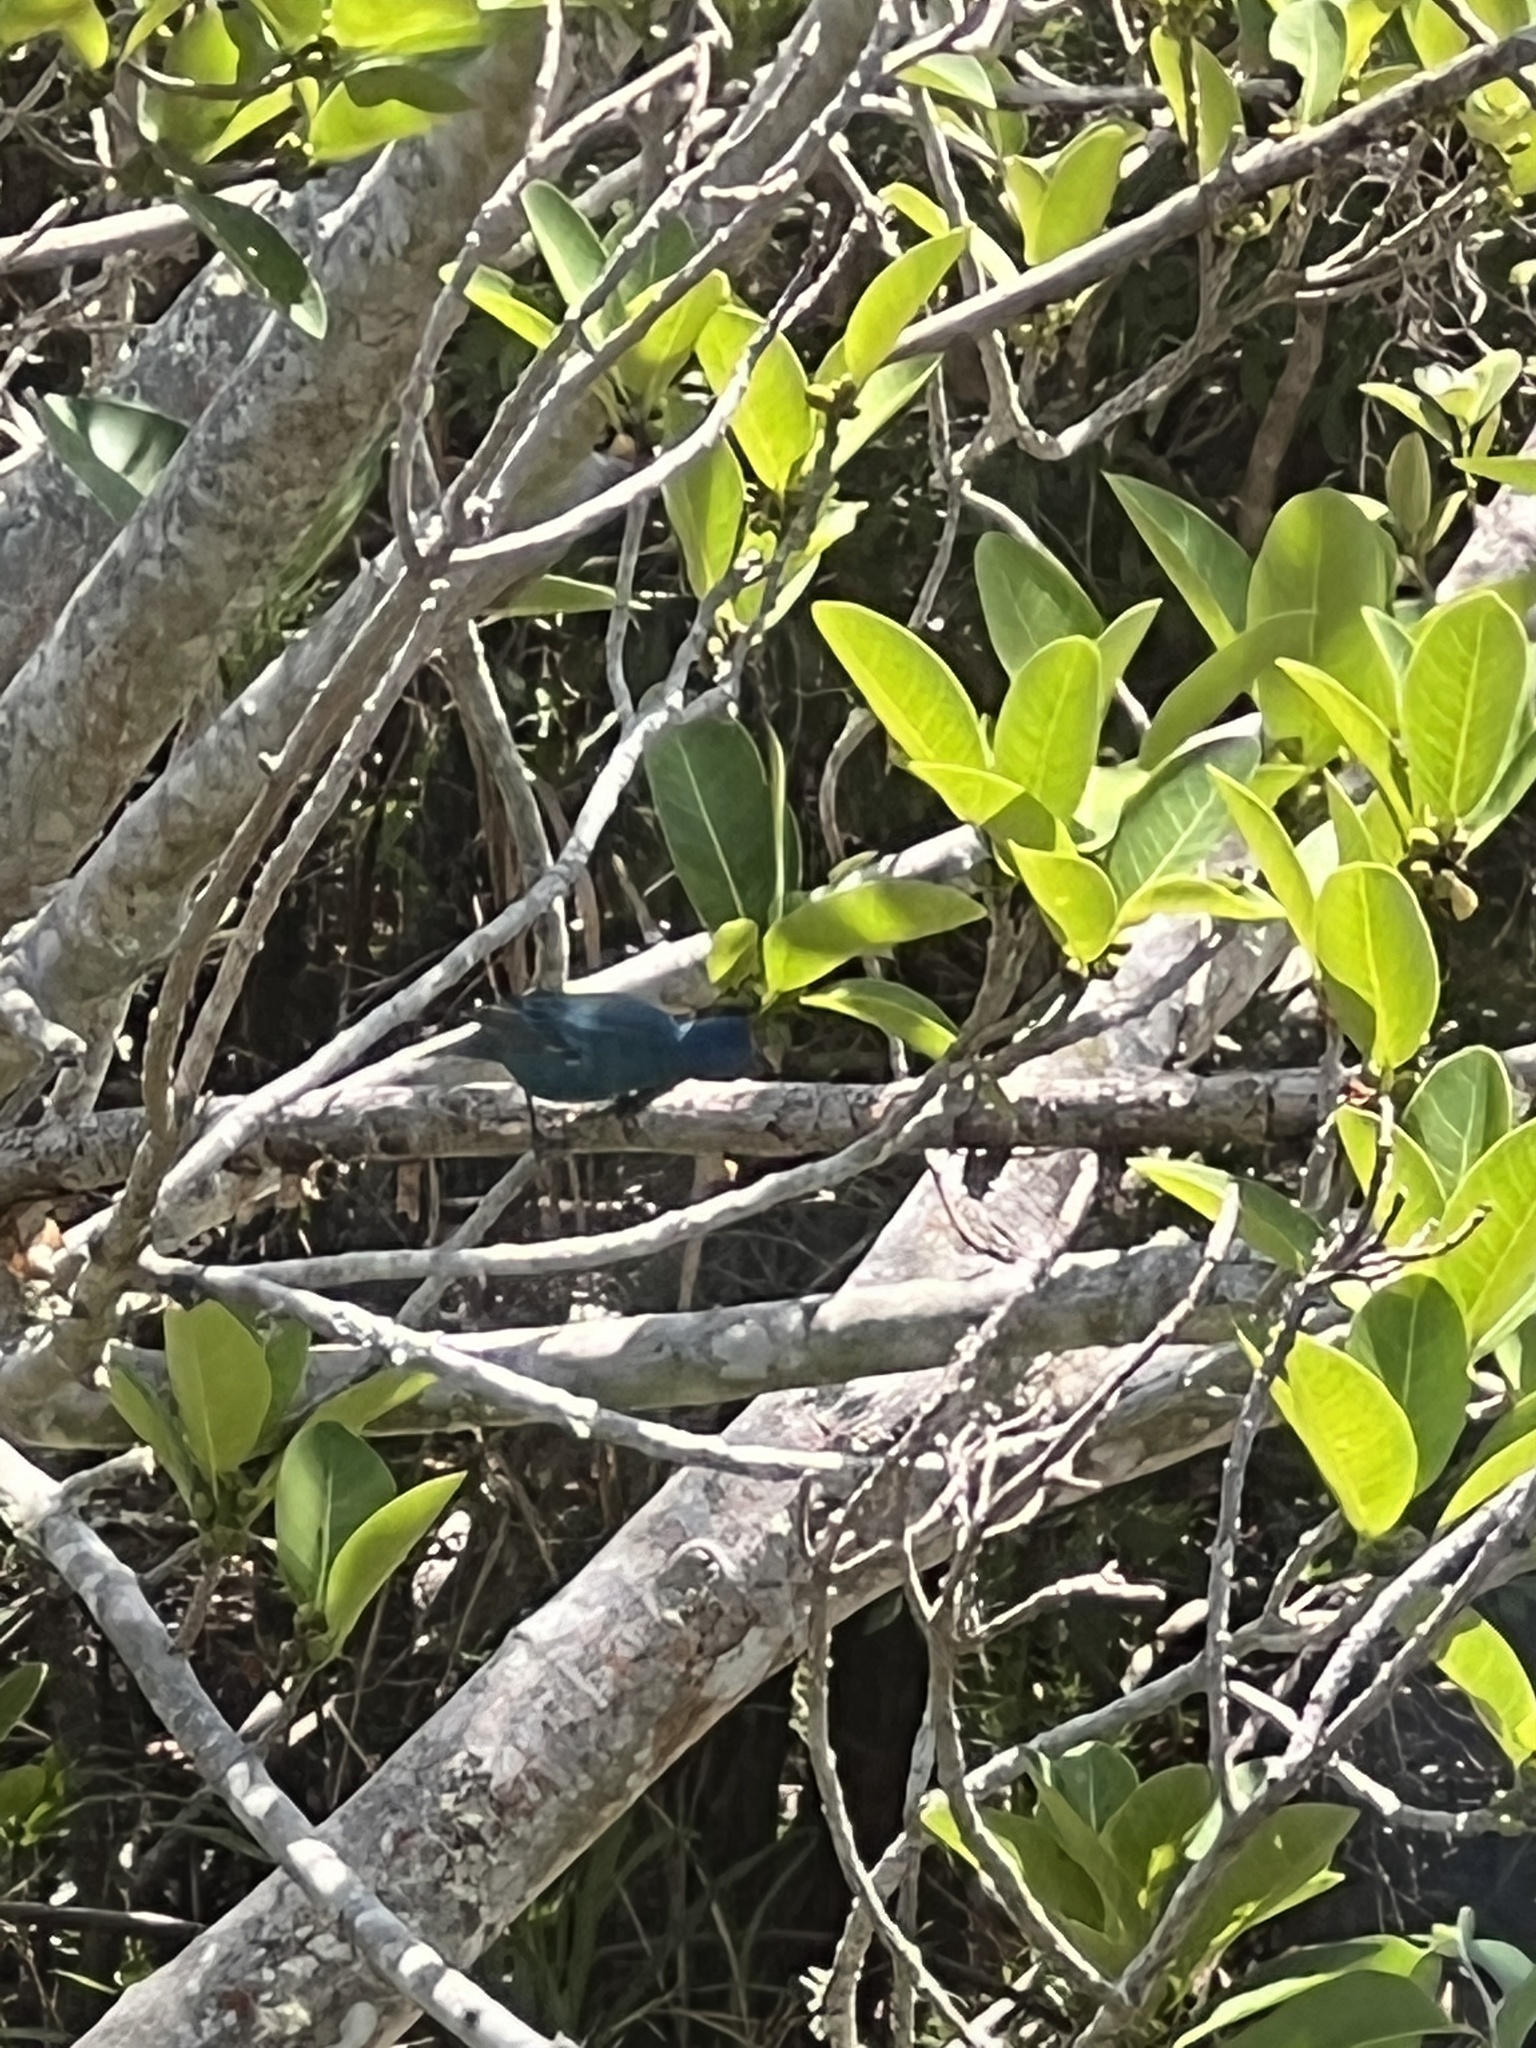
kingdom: Animalia
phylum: Chordata
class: Aves
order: Passeriformes
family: Cardinalidae
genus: Passerina
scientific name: Passerina cyanea
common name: Indigo bunting
